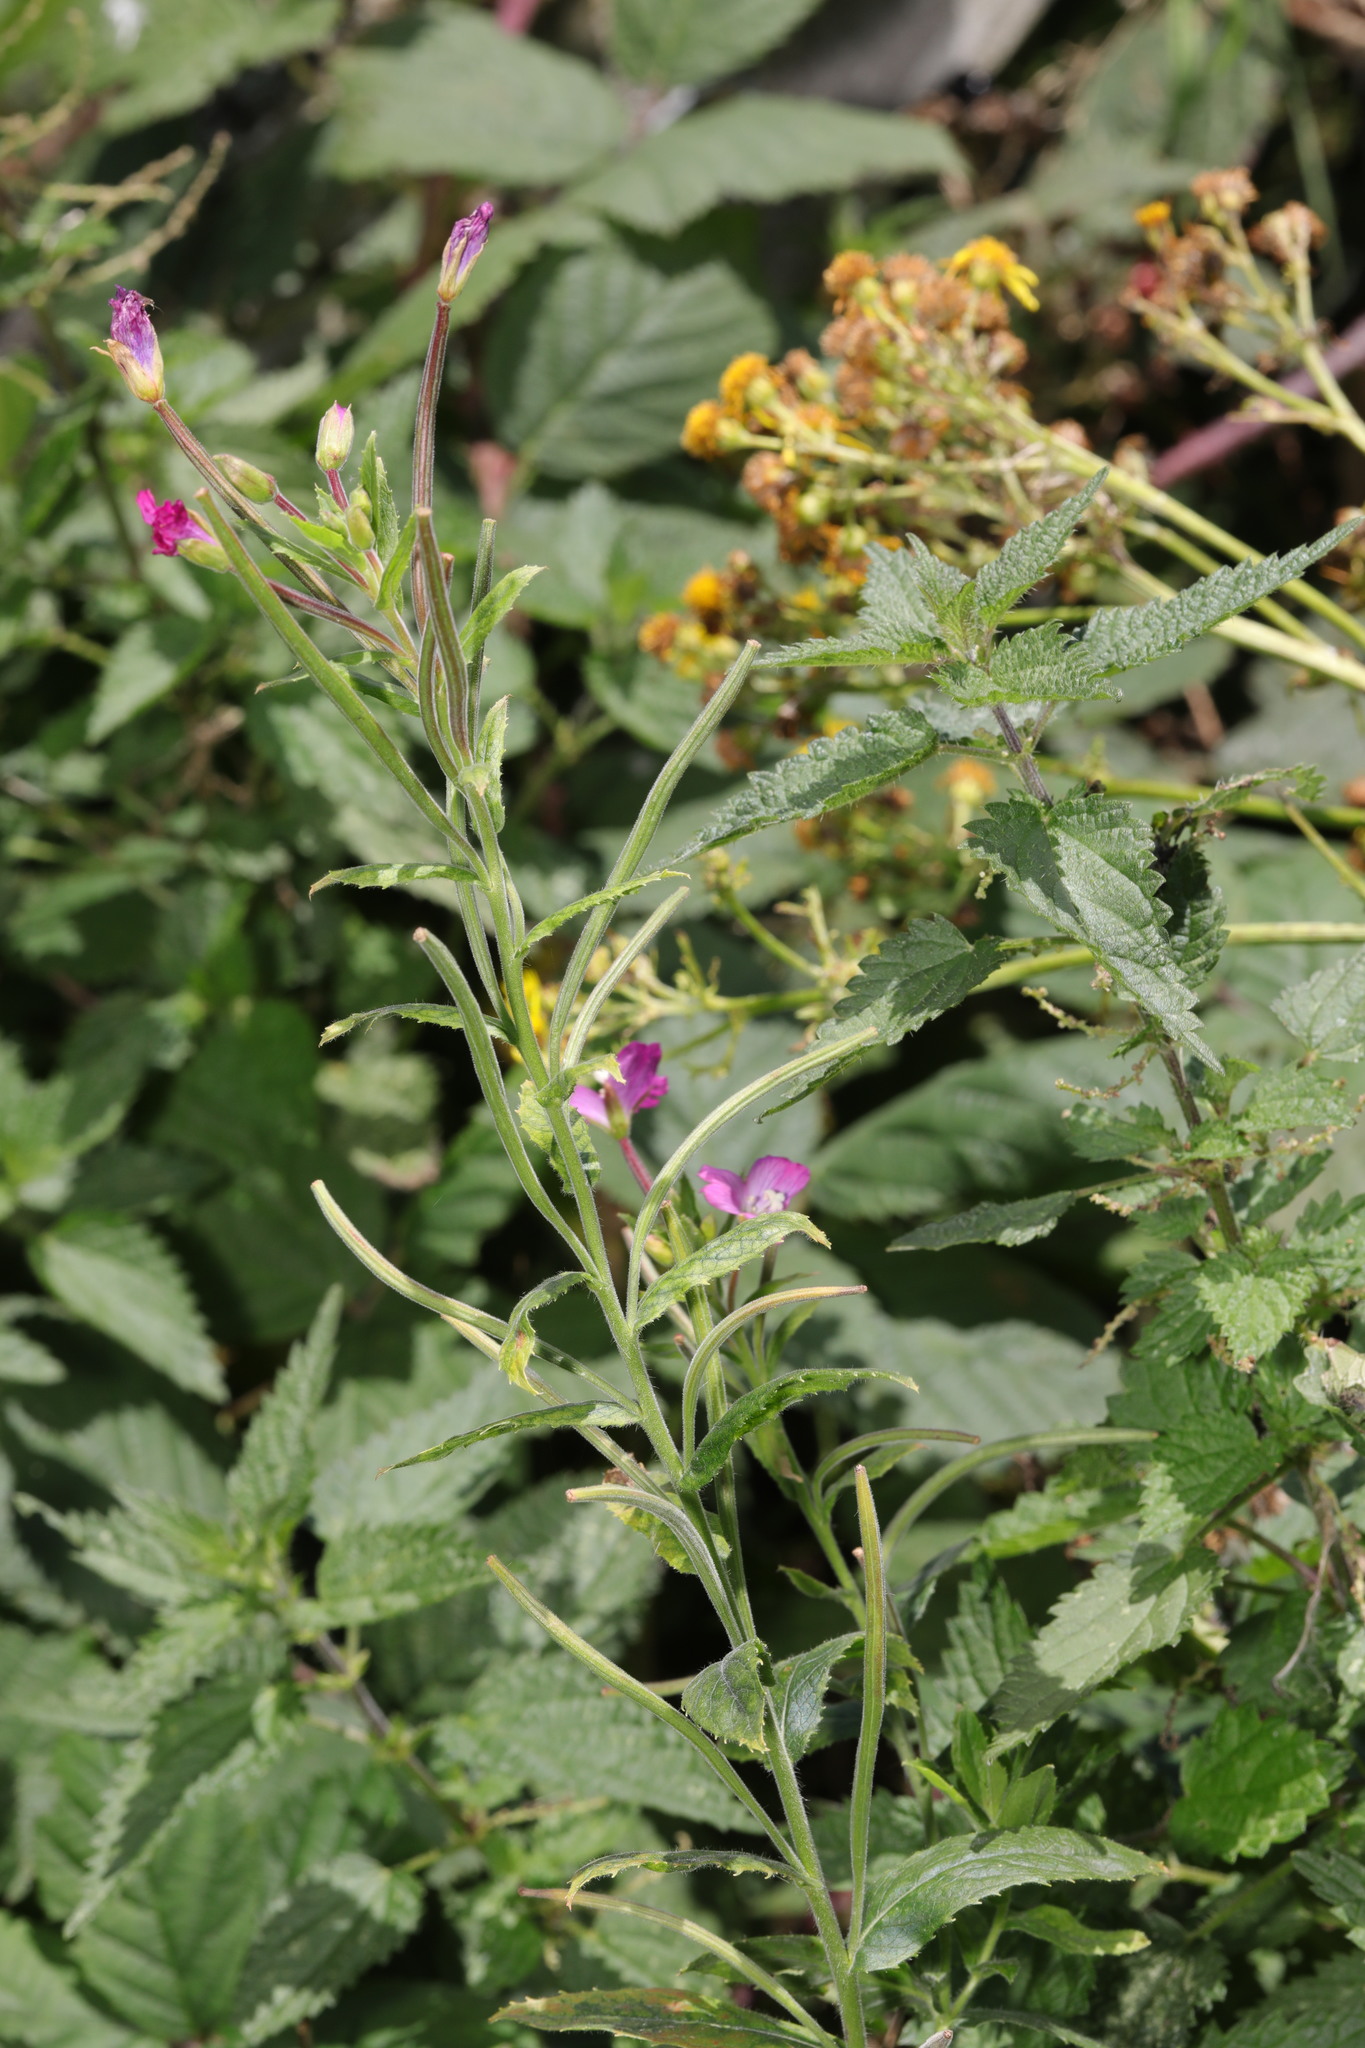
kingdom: Plantae
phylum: Tracheophyta
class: Magnoliopsida
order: Myrtales
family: Onagraceae
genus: Epilobium
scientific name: Epilobium hirsutum
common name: Great willowherb
